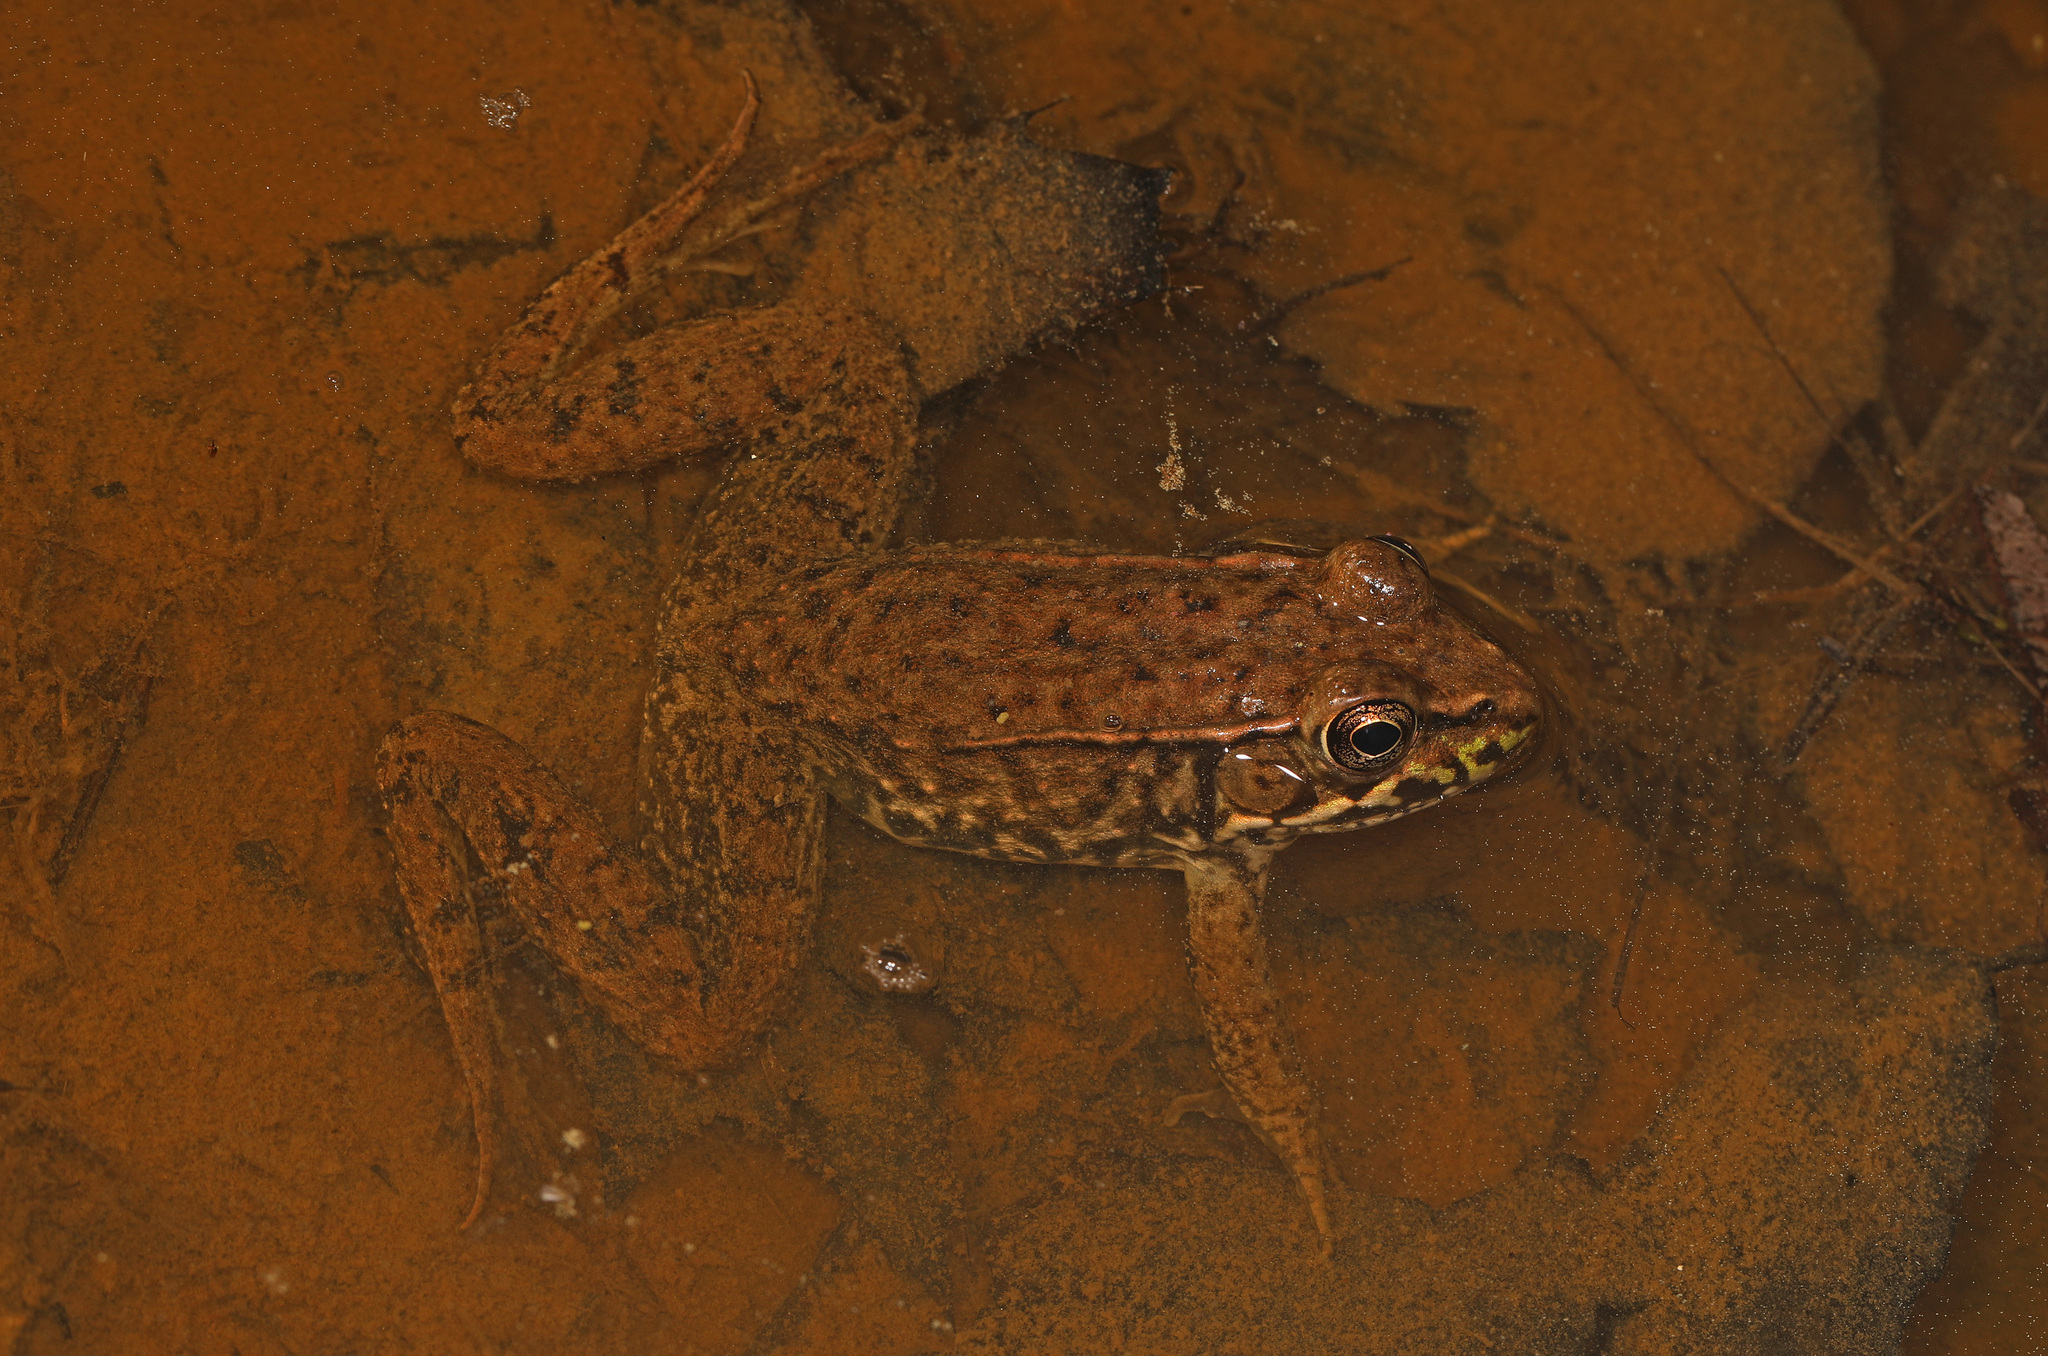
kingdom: Animalia
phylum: Chordata
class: Amphibia
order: Anura
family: Ranidae
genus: Lithobates
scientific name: Lithobates clamitans
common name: Green frog
